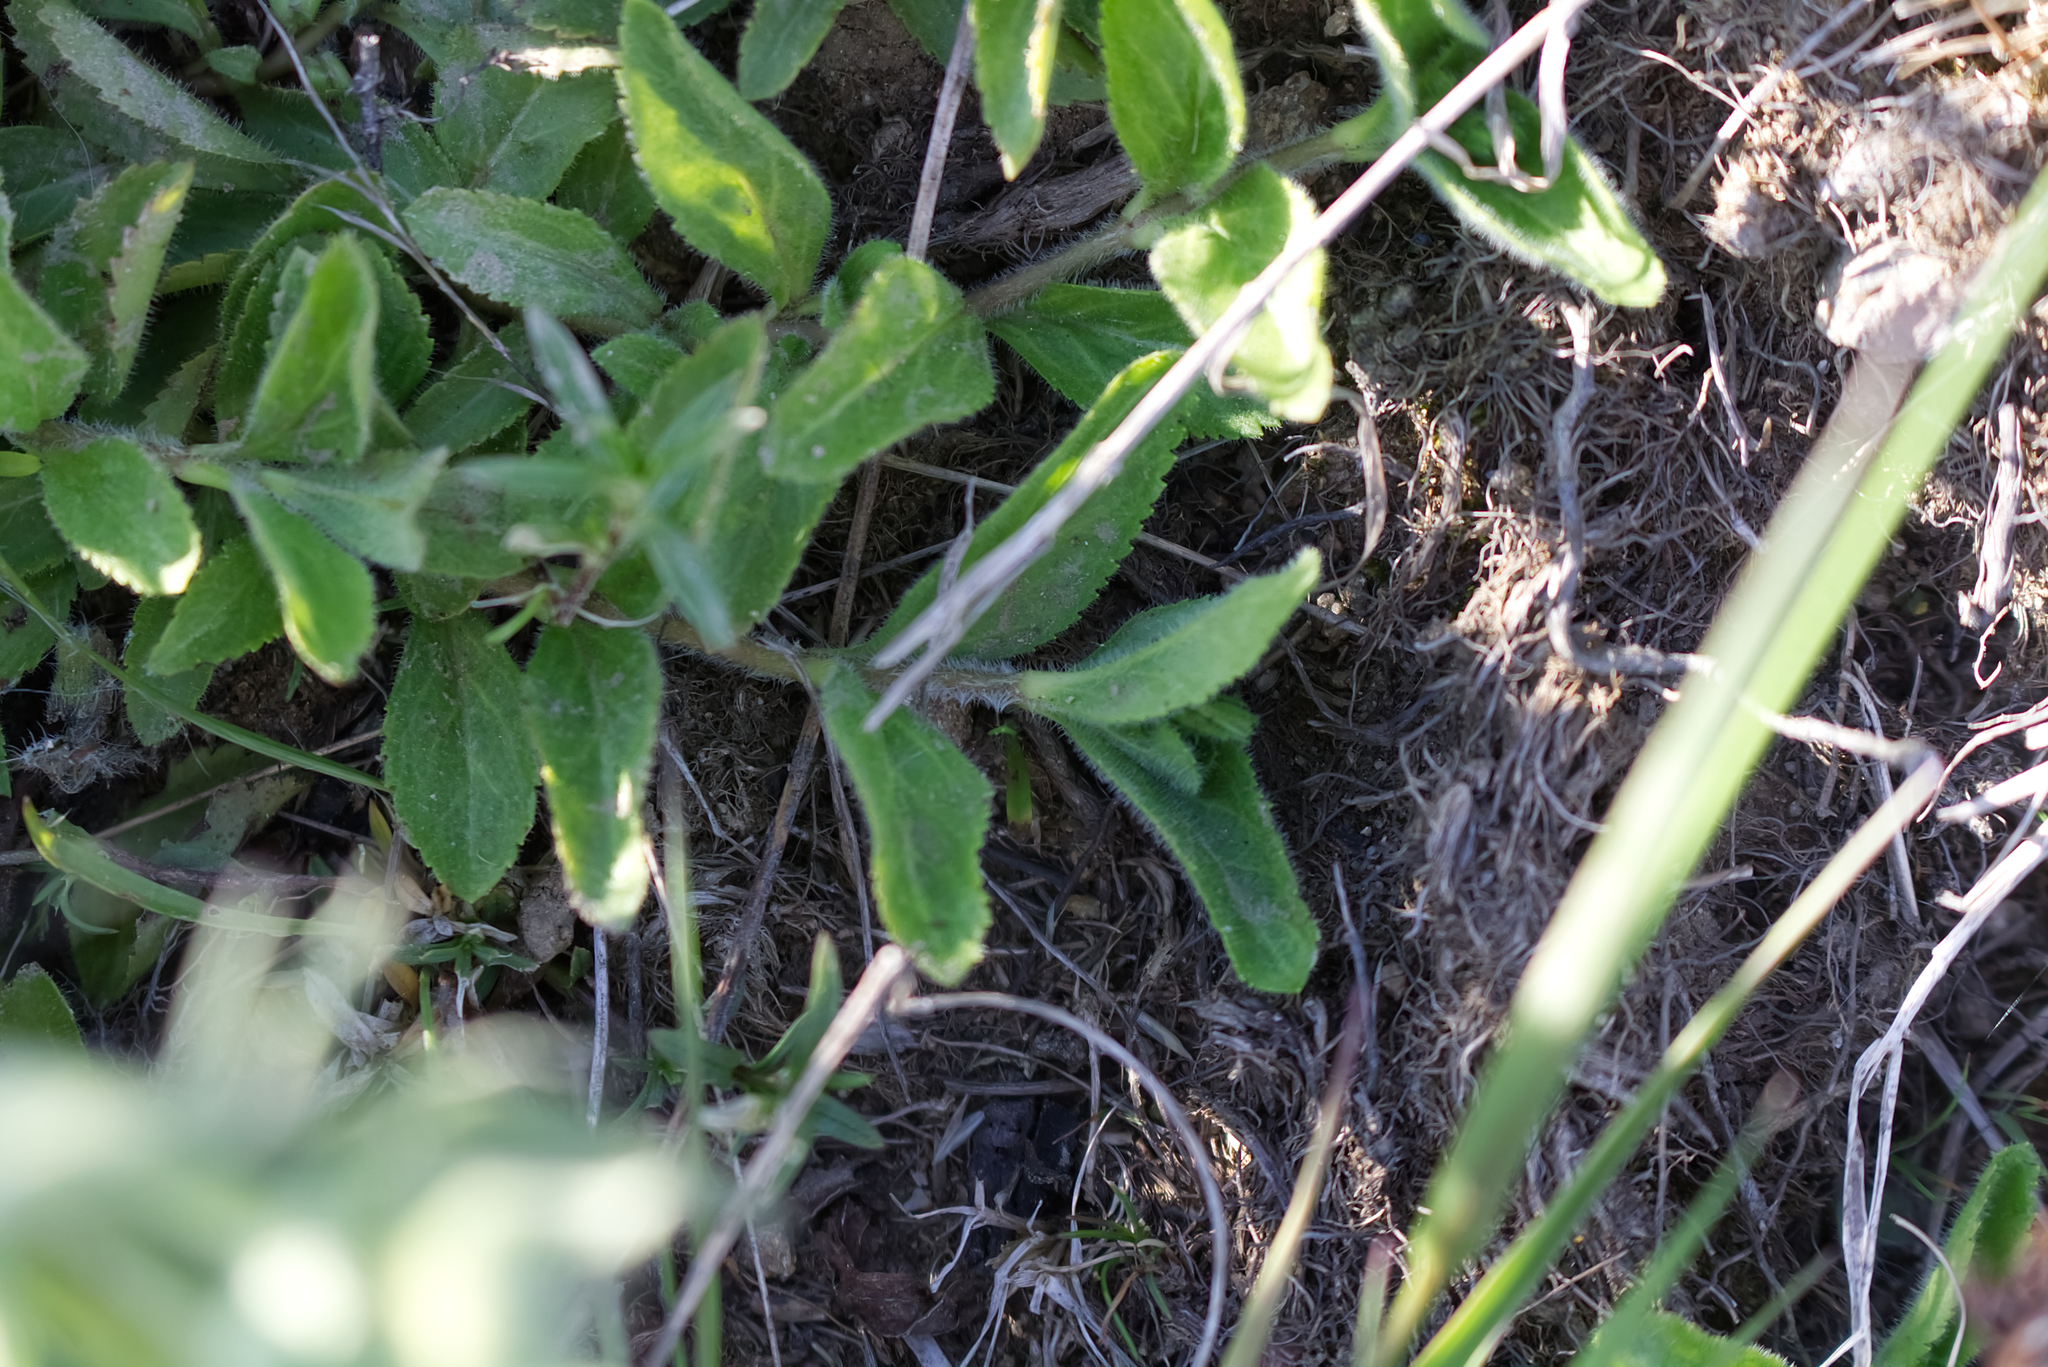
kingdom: Plantae
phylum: Tracheophyta
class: Magnoliopsida
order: Lamiales
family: Plantaginaceae
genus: Veronica
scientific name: Veronica officinalis
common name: Common speedwell
